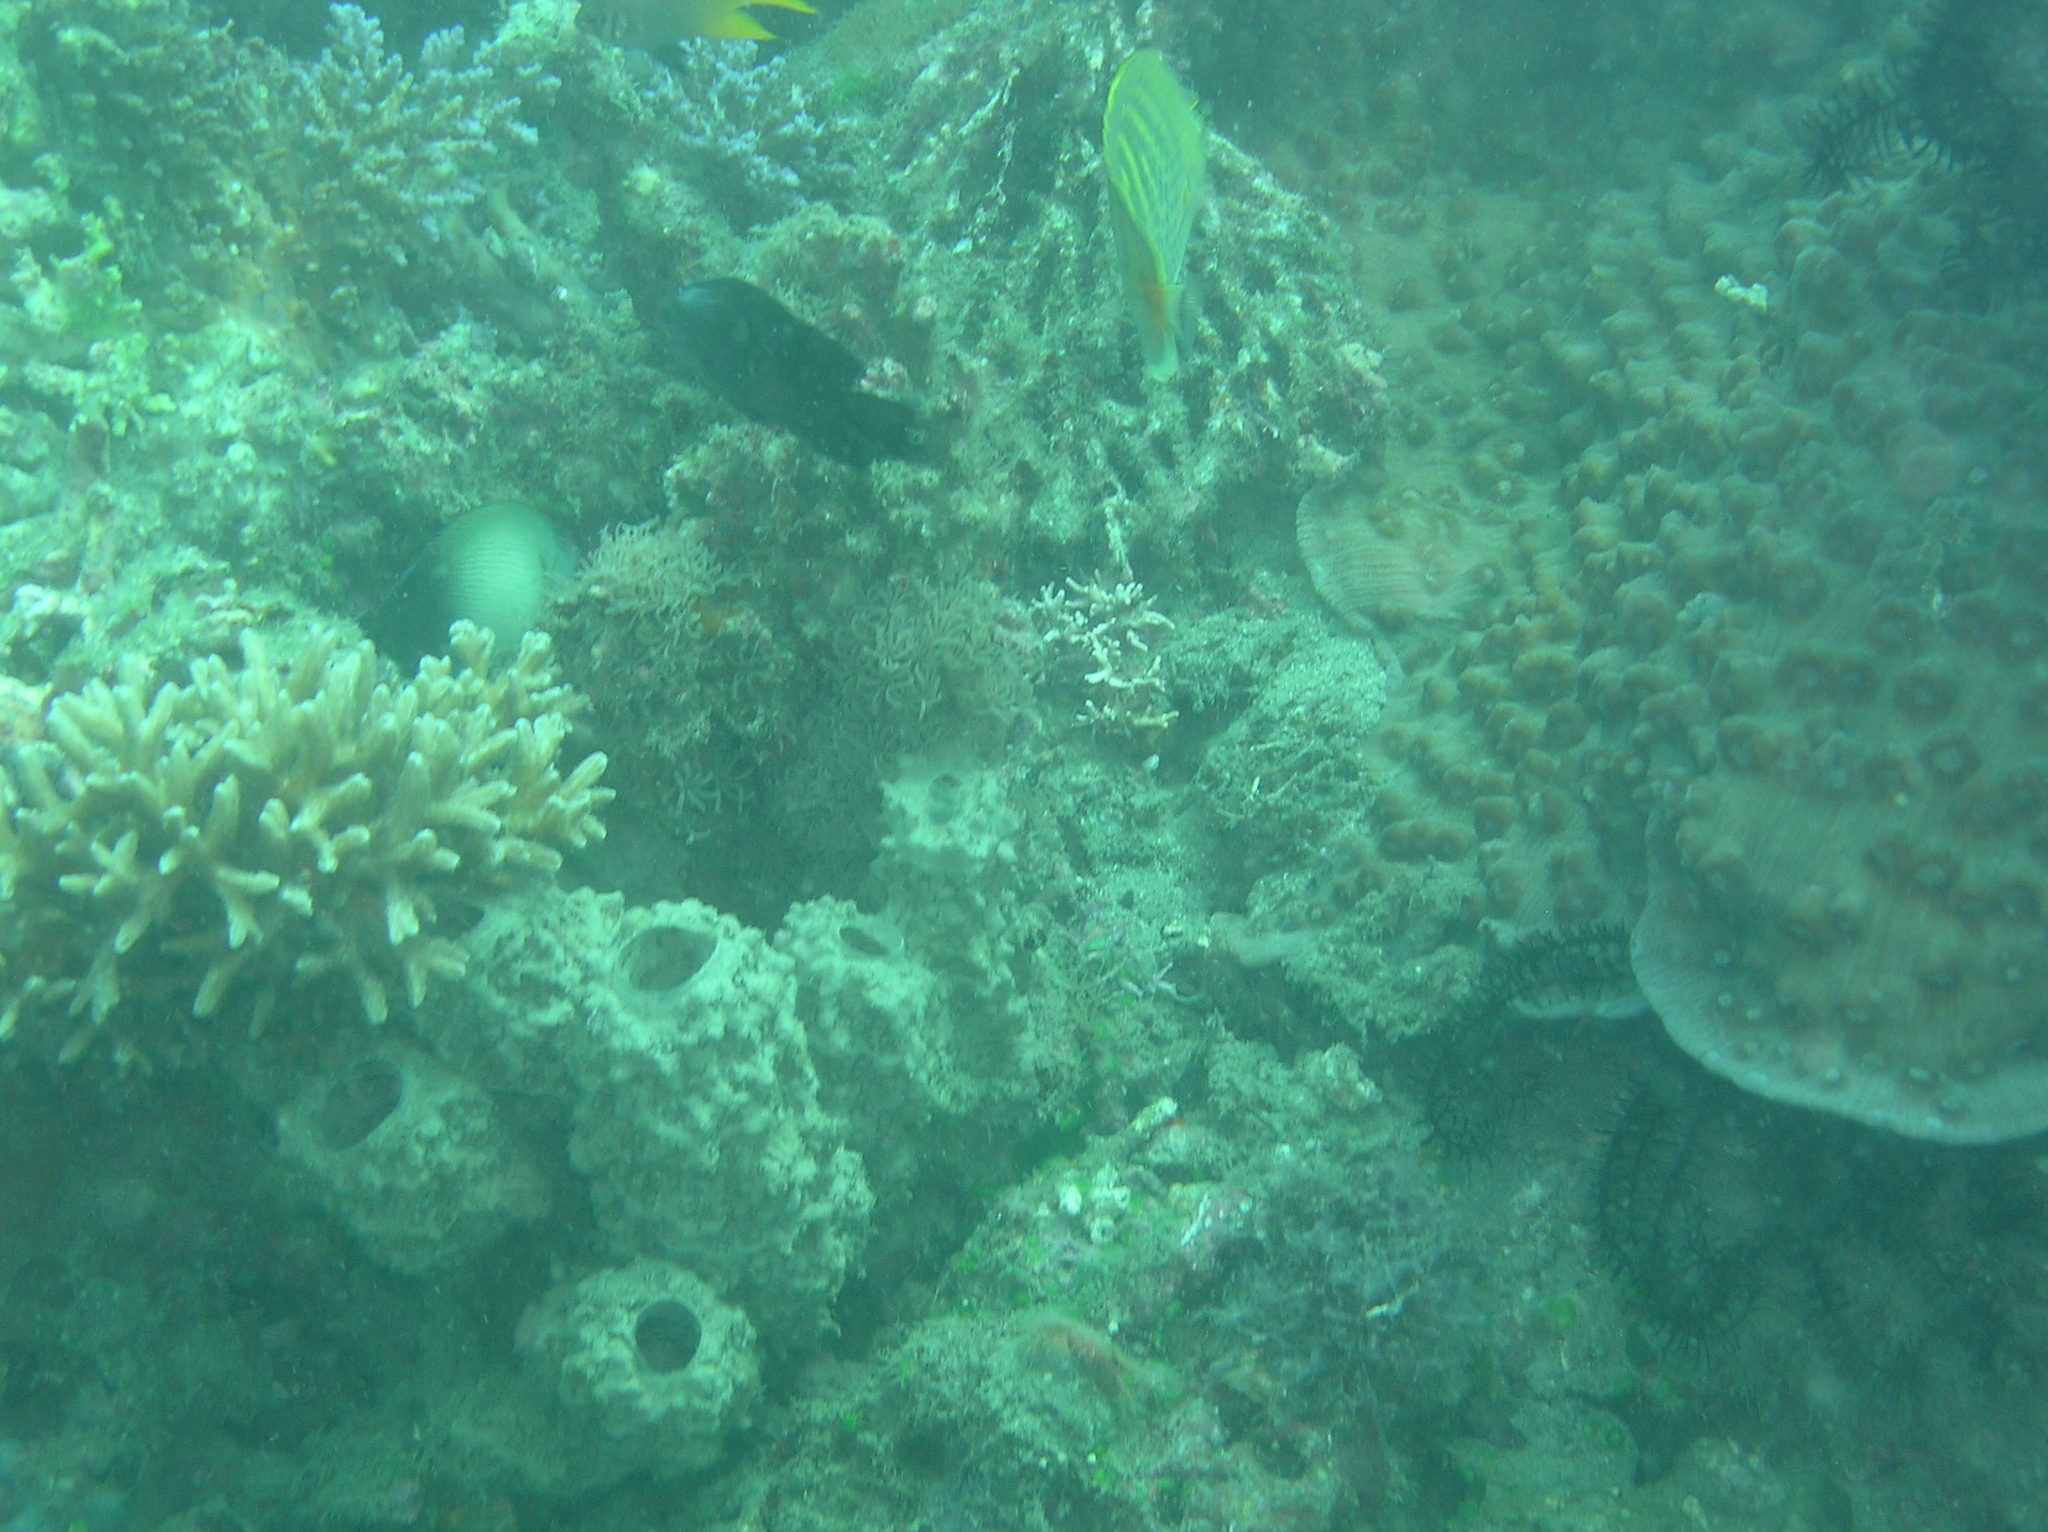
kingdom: Animalia
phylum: Chordata
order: Perciformes
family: Chaetodontidae
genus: Chaetodon
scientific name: Chaetodon punctatofasciatus
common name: Spot-banded butterflyfish
